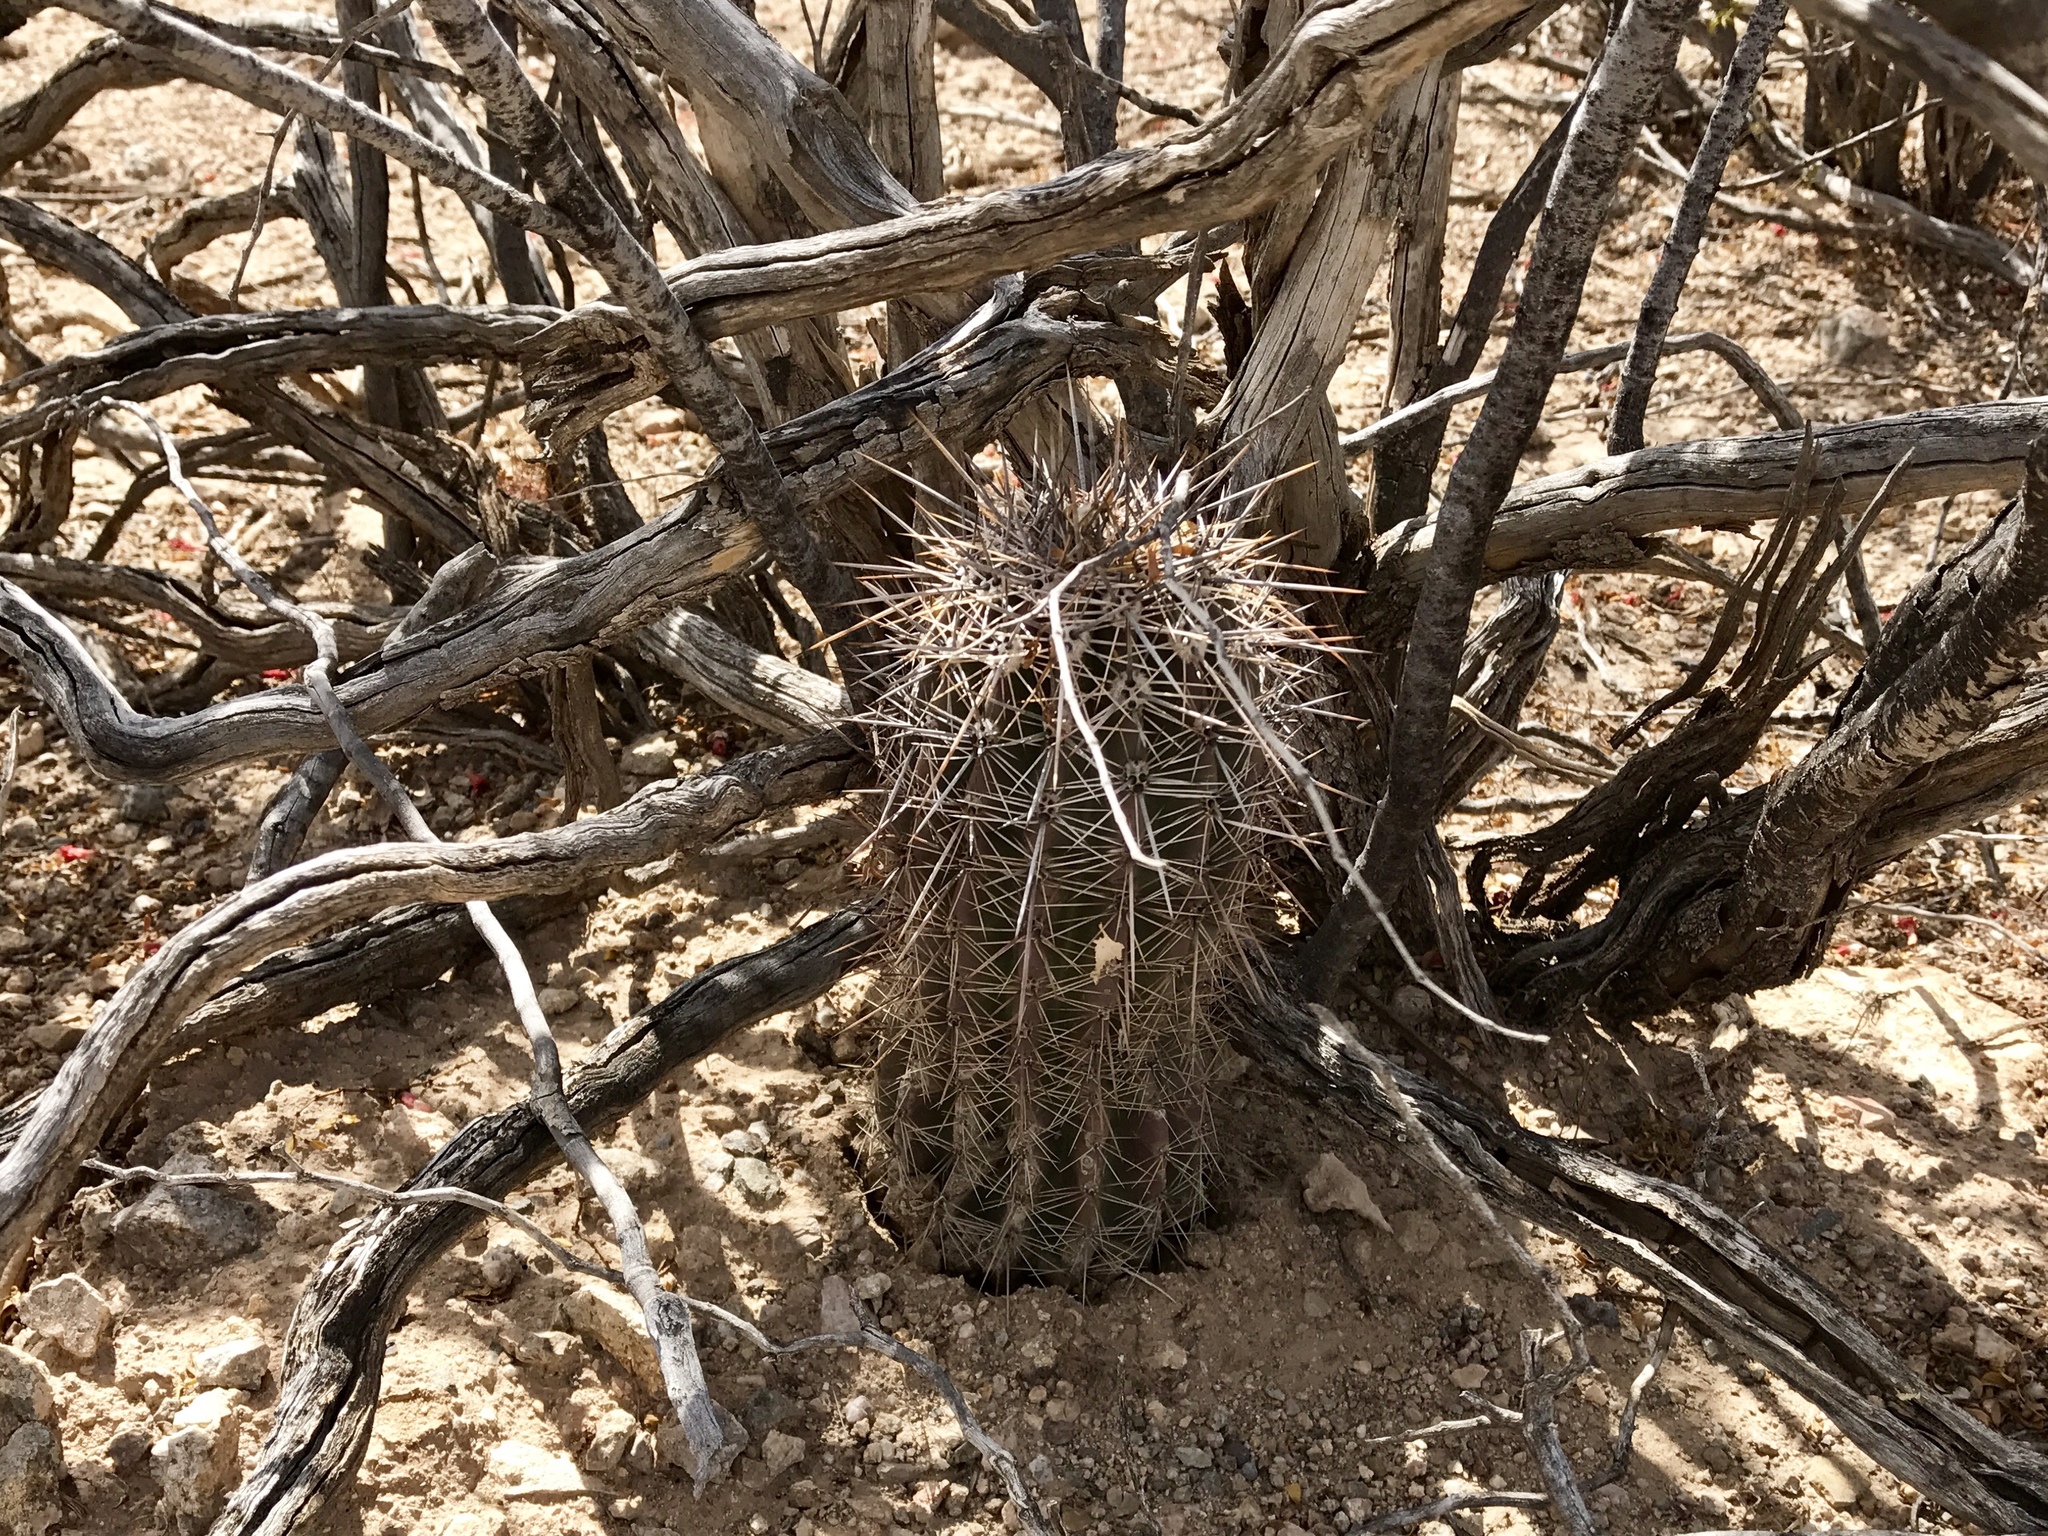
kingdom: Plantae
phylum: Tracheophyta
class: Magnoliopsida
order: Caryophyllales
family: Cactaceae
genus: Carnegiea
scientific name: Carnegiea gigantea
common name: Saguaro
